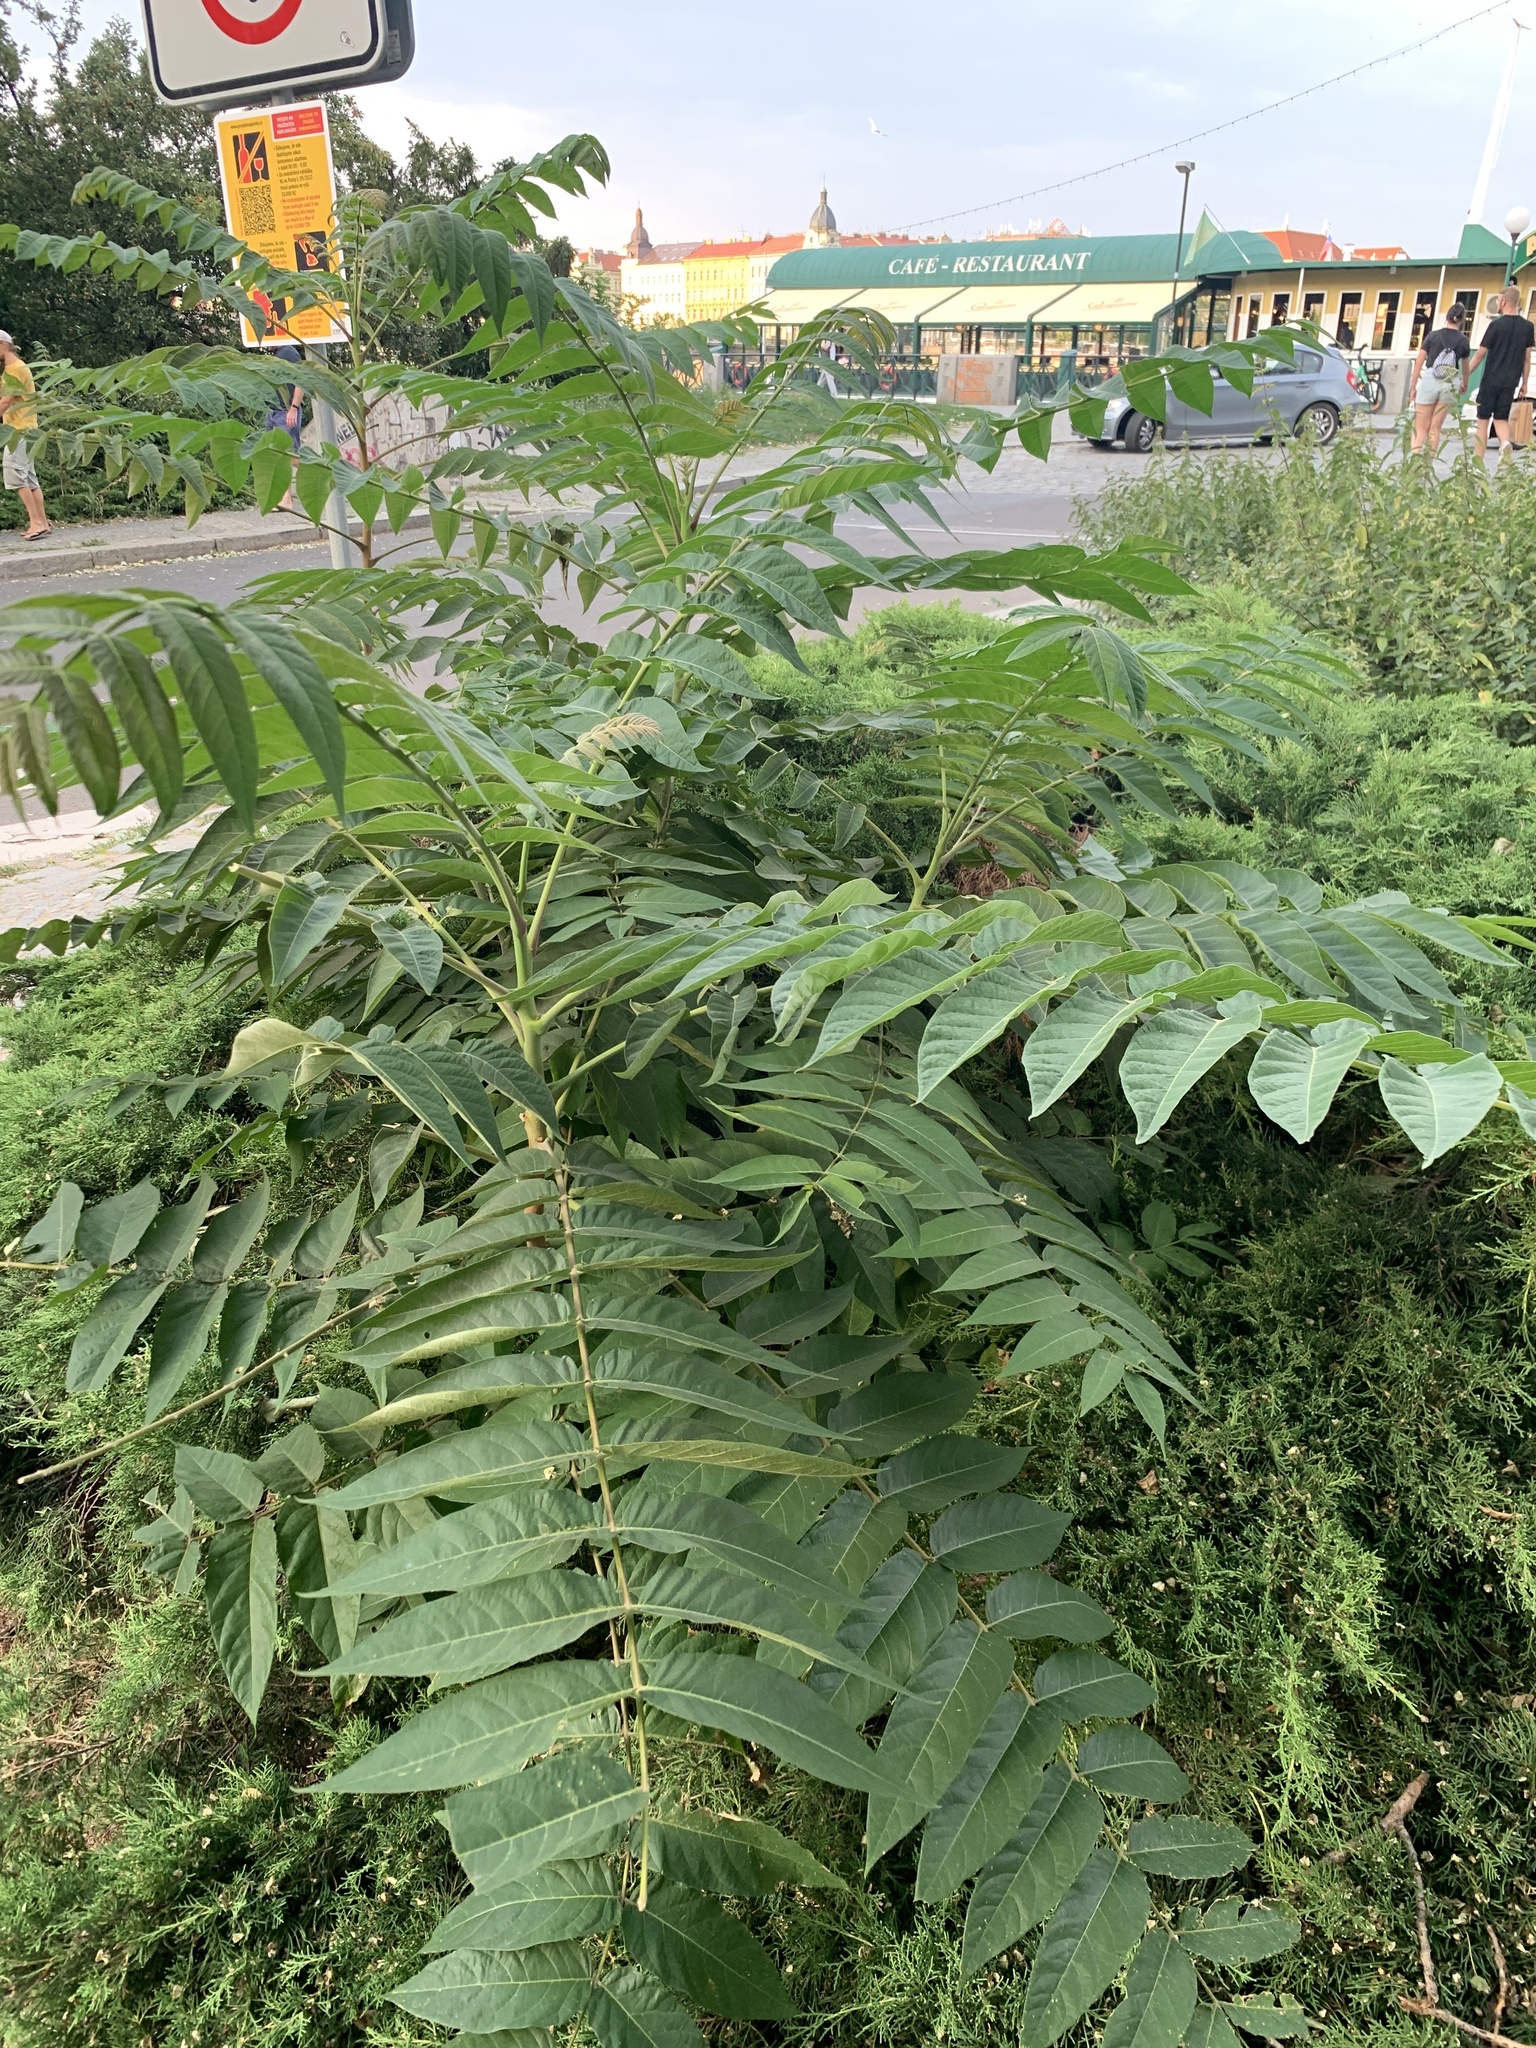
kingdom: Plantae
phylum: Tracheophyta
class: Magnoliopsida
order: Sapindales
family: Simaroubaceae
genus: Ailanthus
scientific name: Ailanthus altissima
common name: Tree-of-heaven
